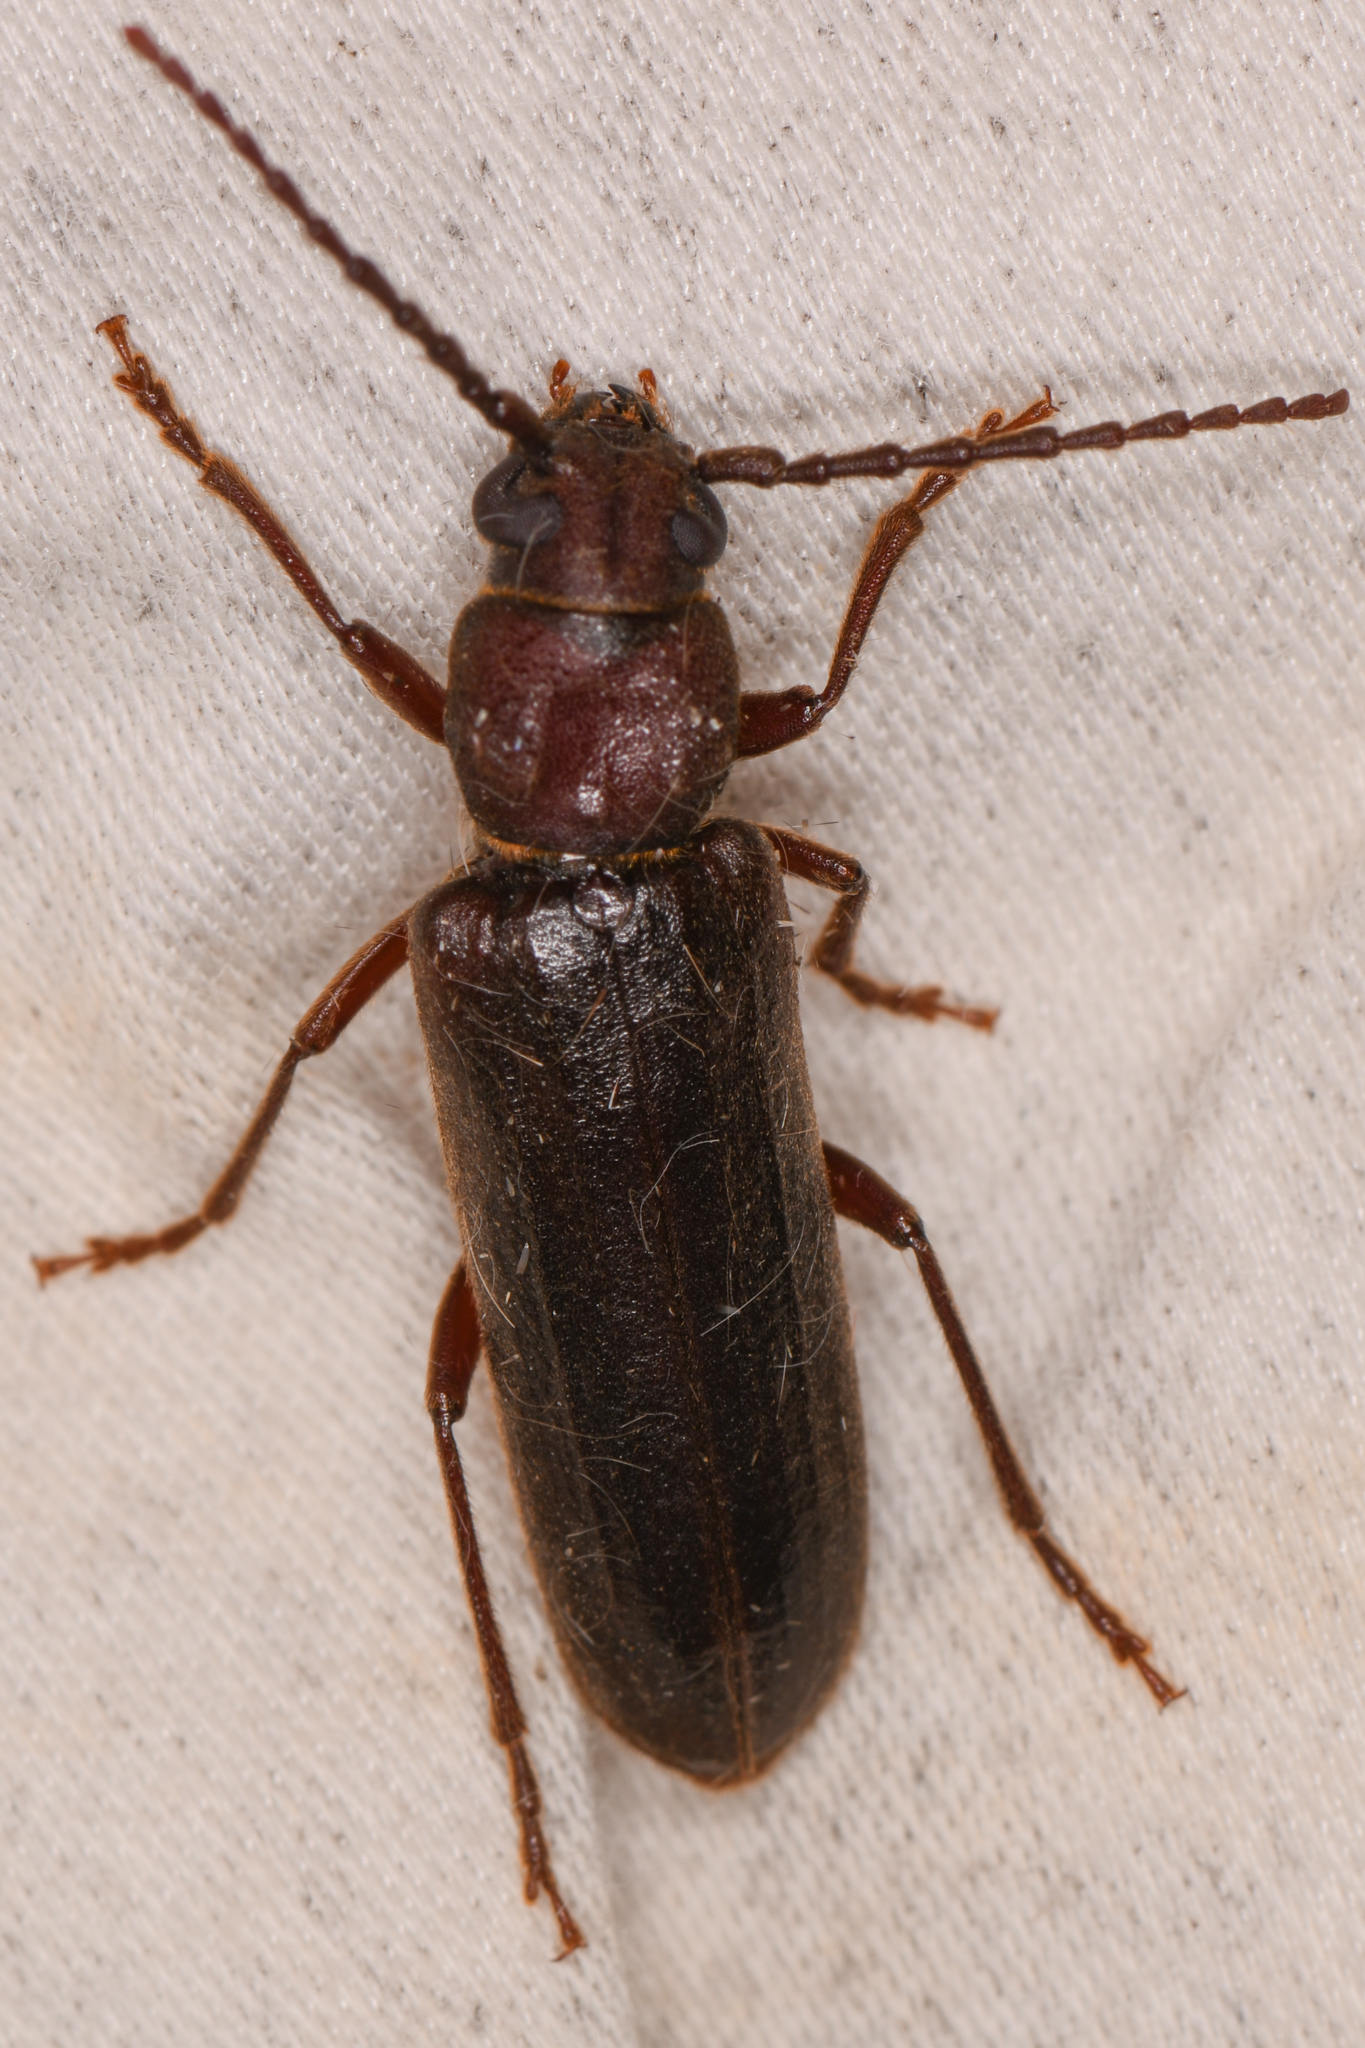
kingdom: Animalia
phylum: Arthropoda
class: Insecta
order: Coleoptera
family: Cerambycidae
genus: Megasemum
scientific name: Megasemum asperum
